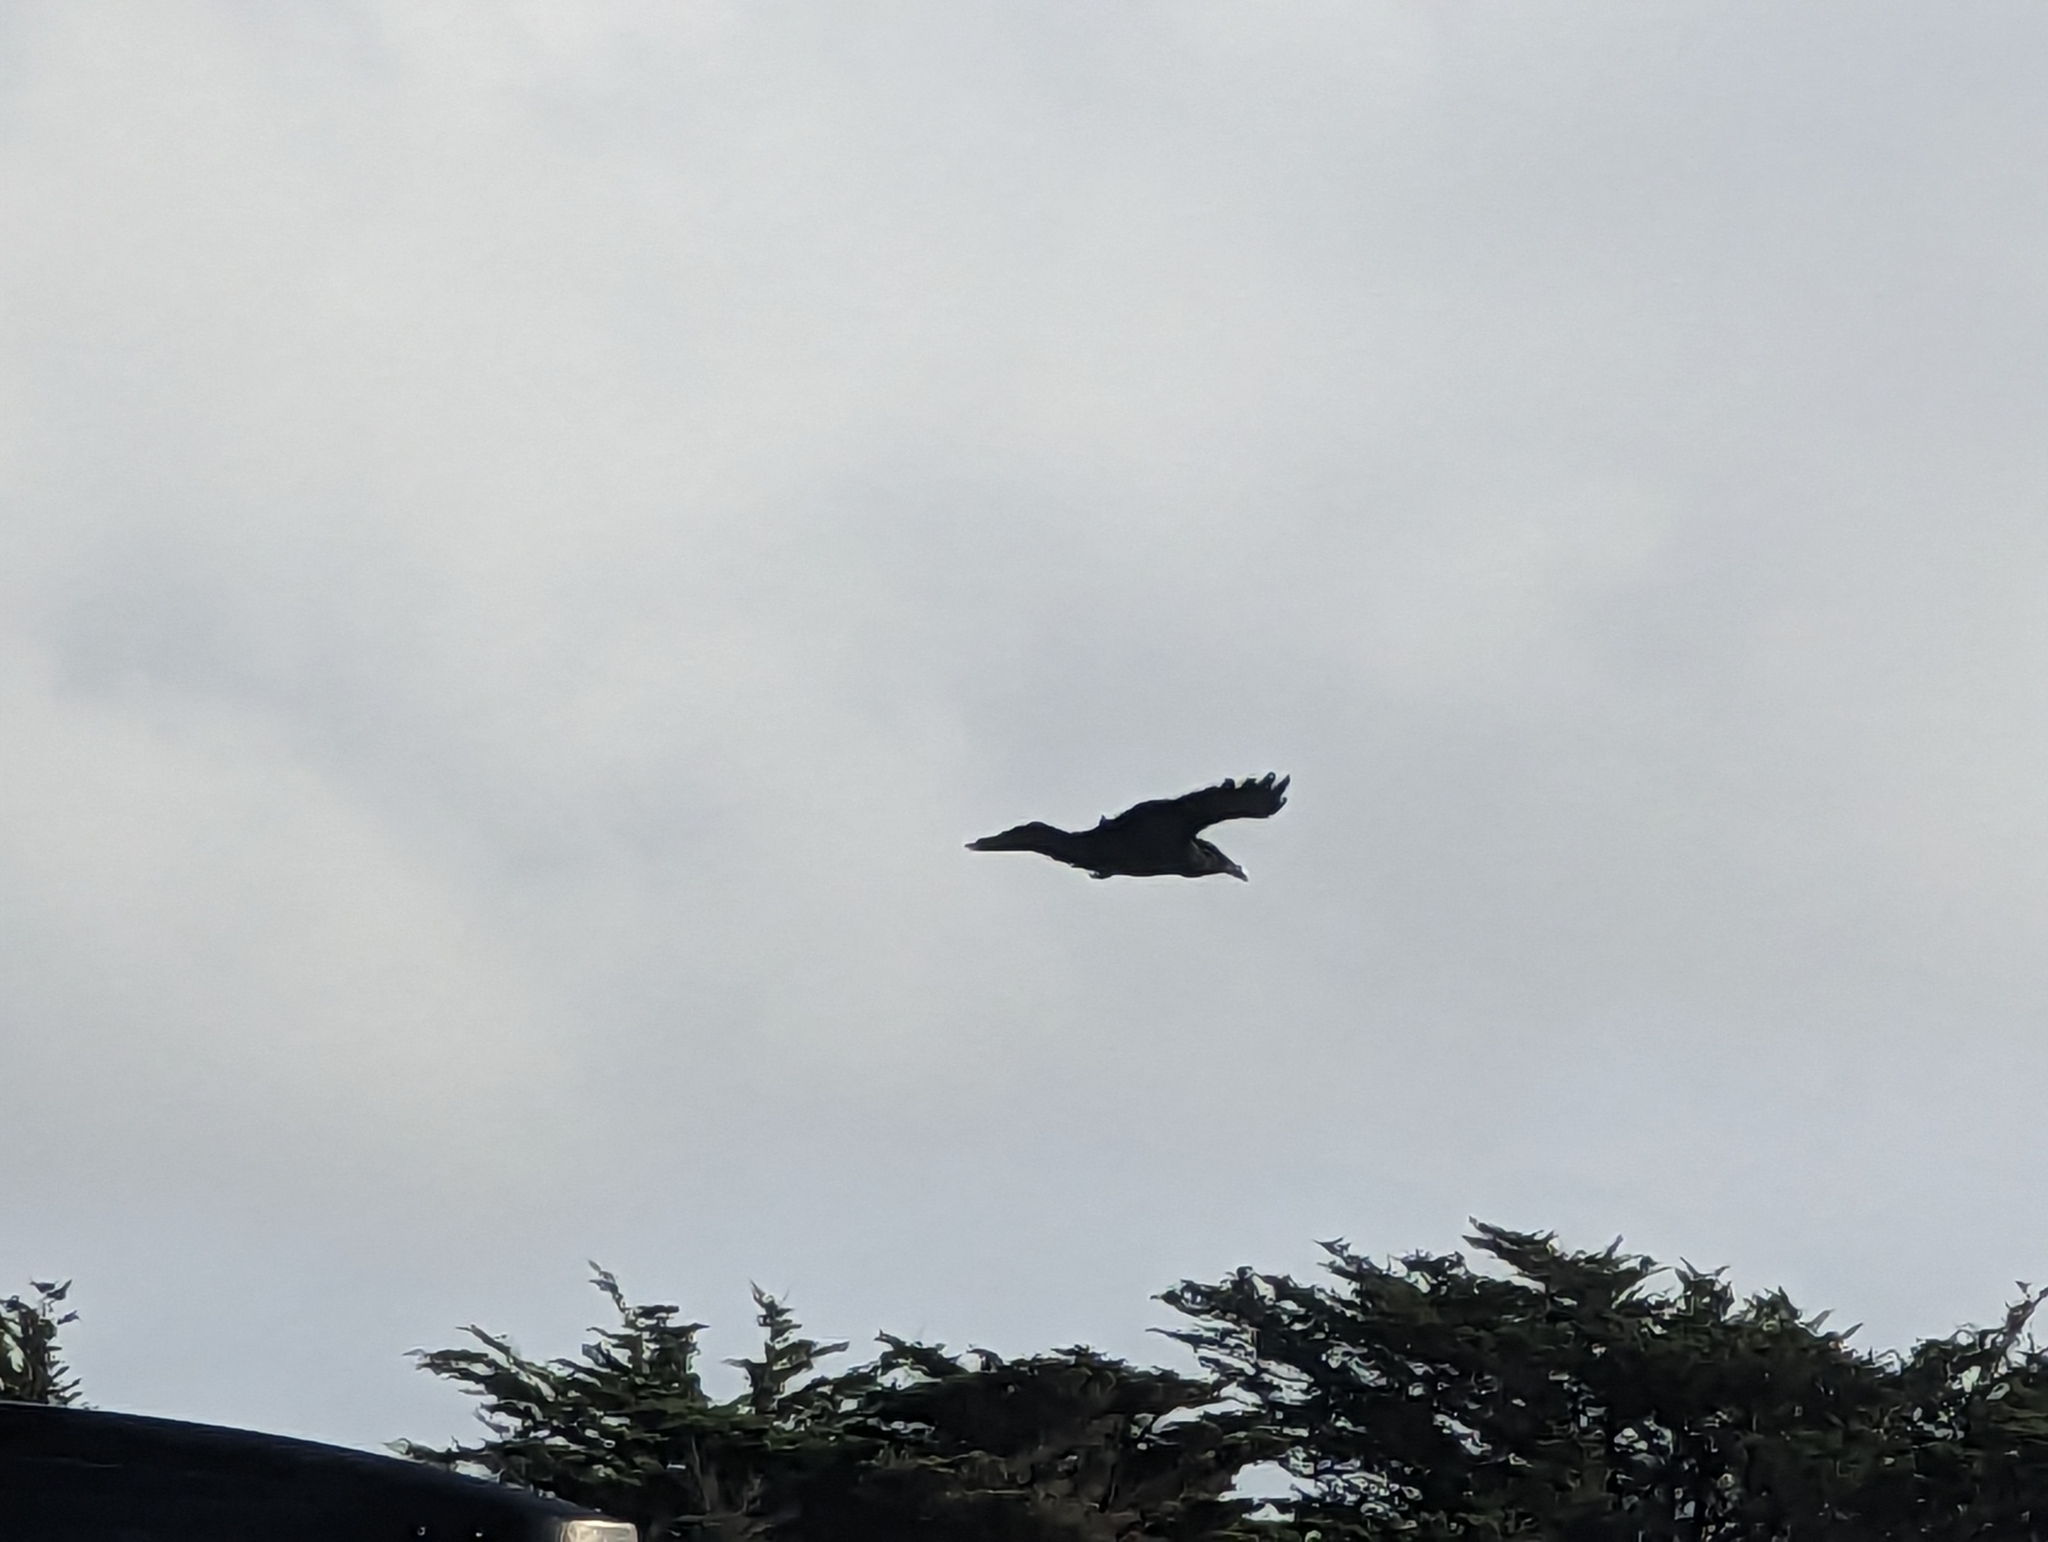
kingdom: Animalia
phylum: Chordata
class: Aves
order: Passeriformes
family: Corvidae
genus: Corvus
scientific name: Corvus corax
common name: Common raven
